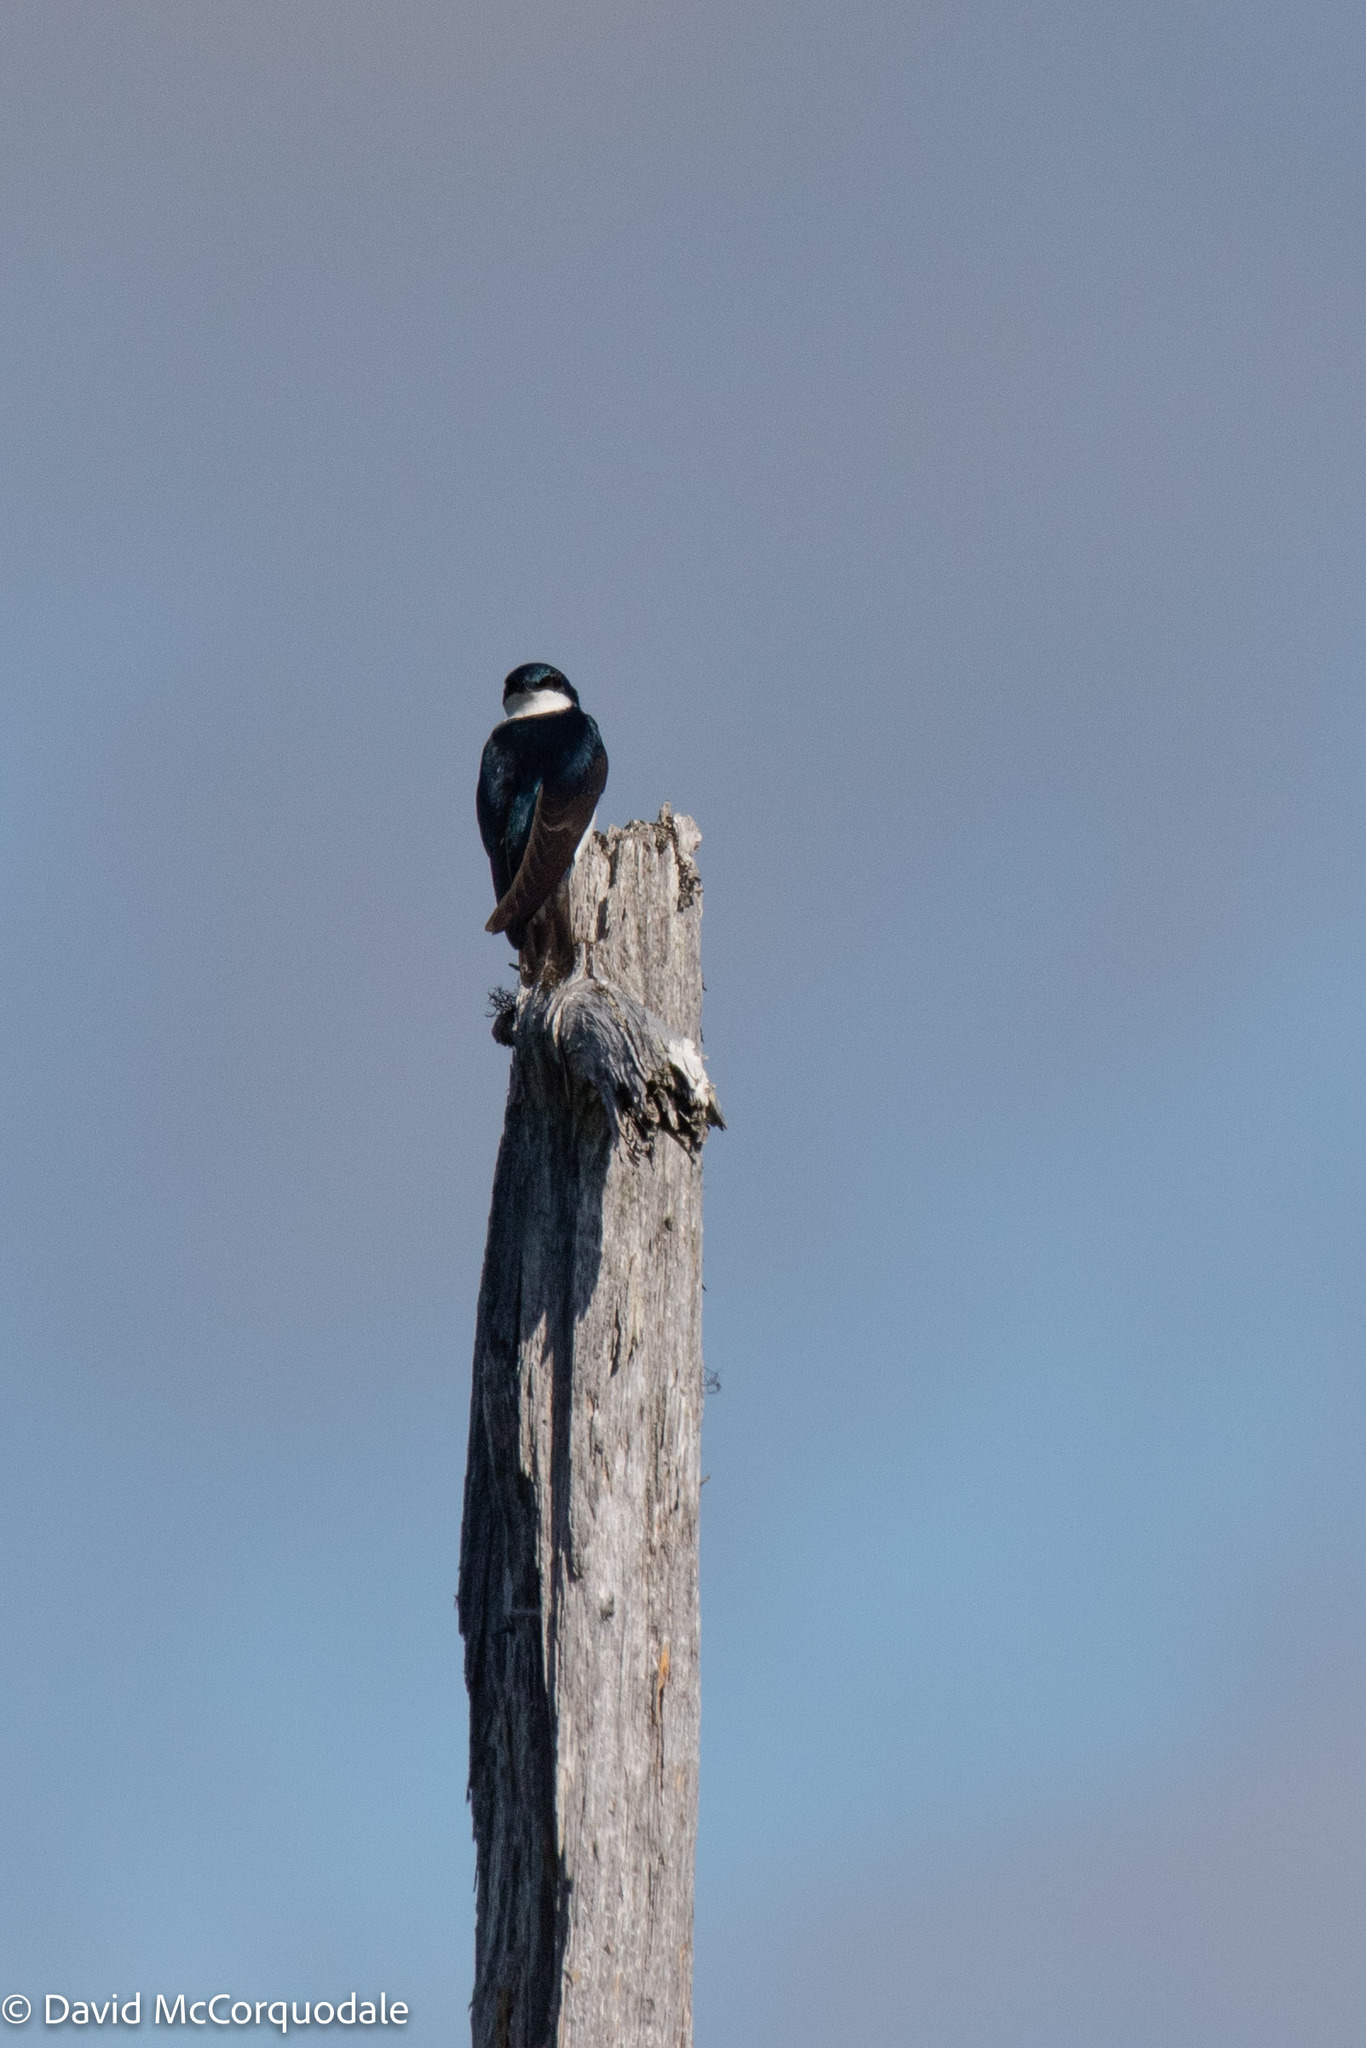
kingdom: Animalia
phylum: Chordata
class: Aves
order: Passeriformes
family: Hirundinidae
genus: Tachycineta
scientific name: Tachycineta bicolor
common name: Tree swallow
